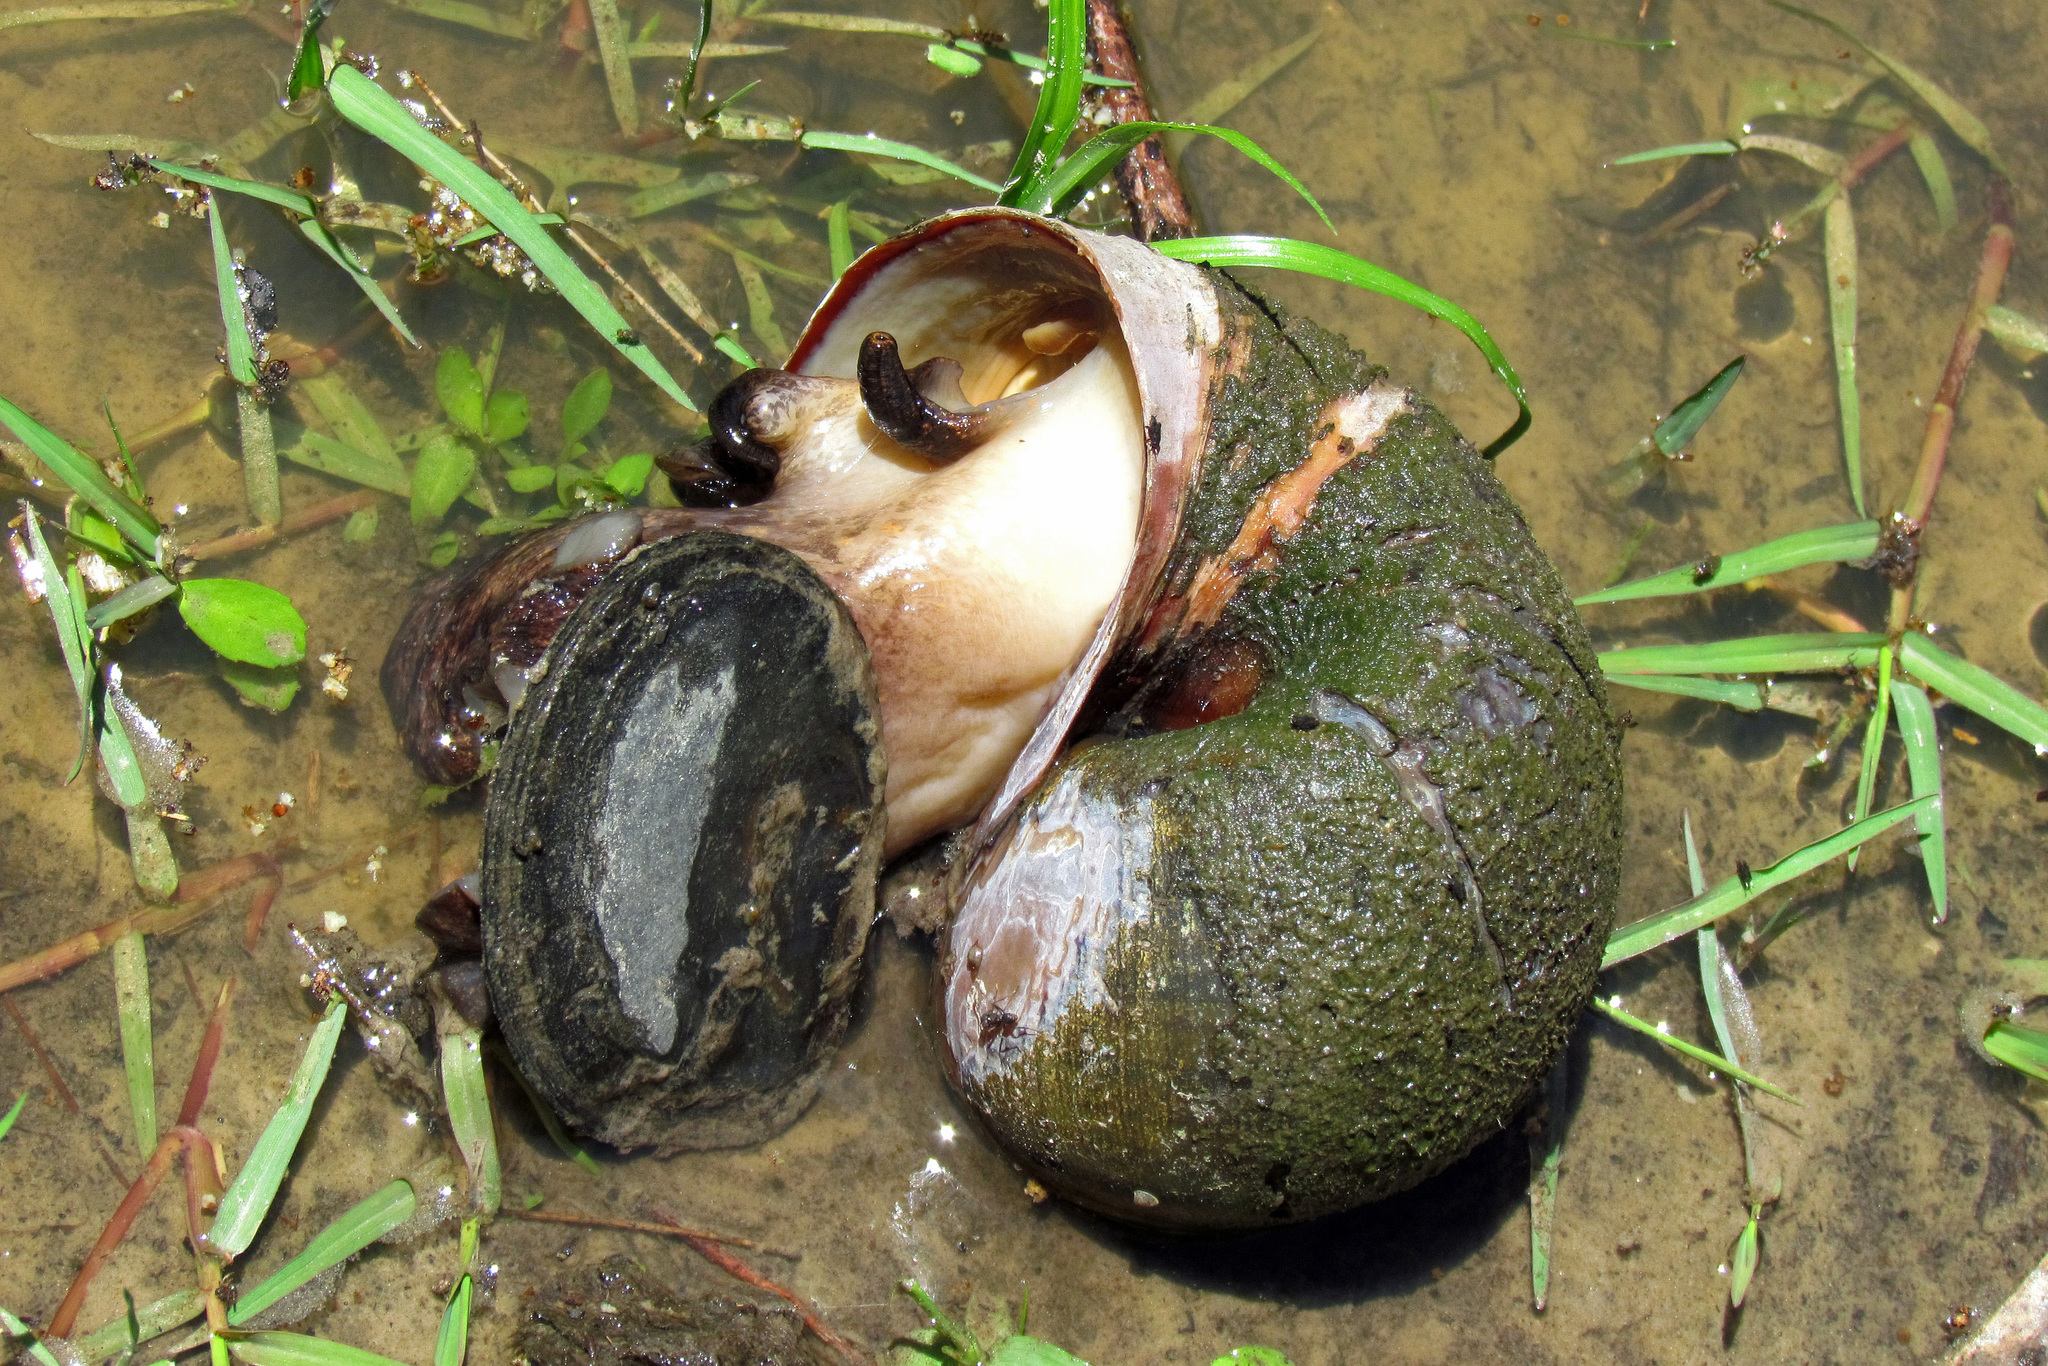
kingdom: Animalia
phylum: Mollusca
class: Gastropoda
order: Architaenioglossa
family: Ampullariidae
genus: Pomacea
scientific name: Pomacea canaliculata
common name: Channeled applesnail
